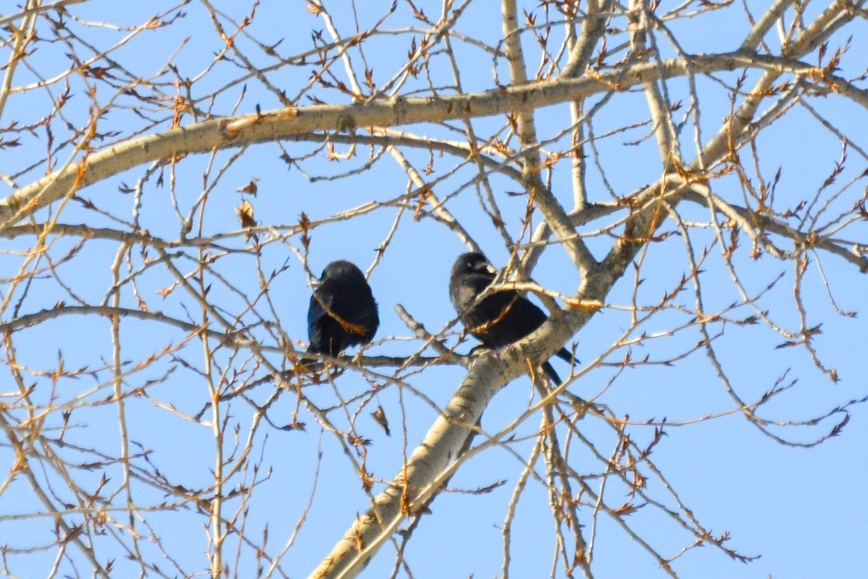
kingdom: Animalia
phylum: Chordata
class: Aves
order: Passeriformes
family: Corvidae
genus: Coloeus
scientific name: Coloeus monedula
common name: Western jackdaw
